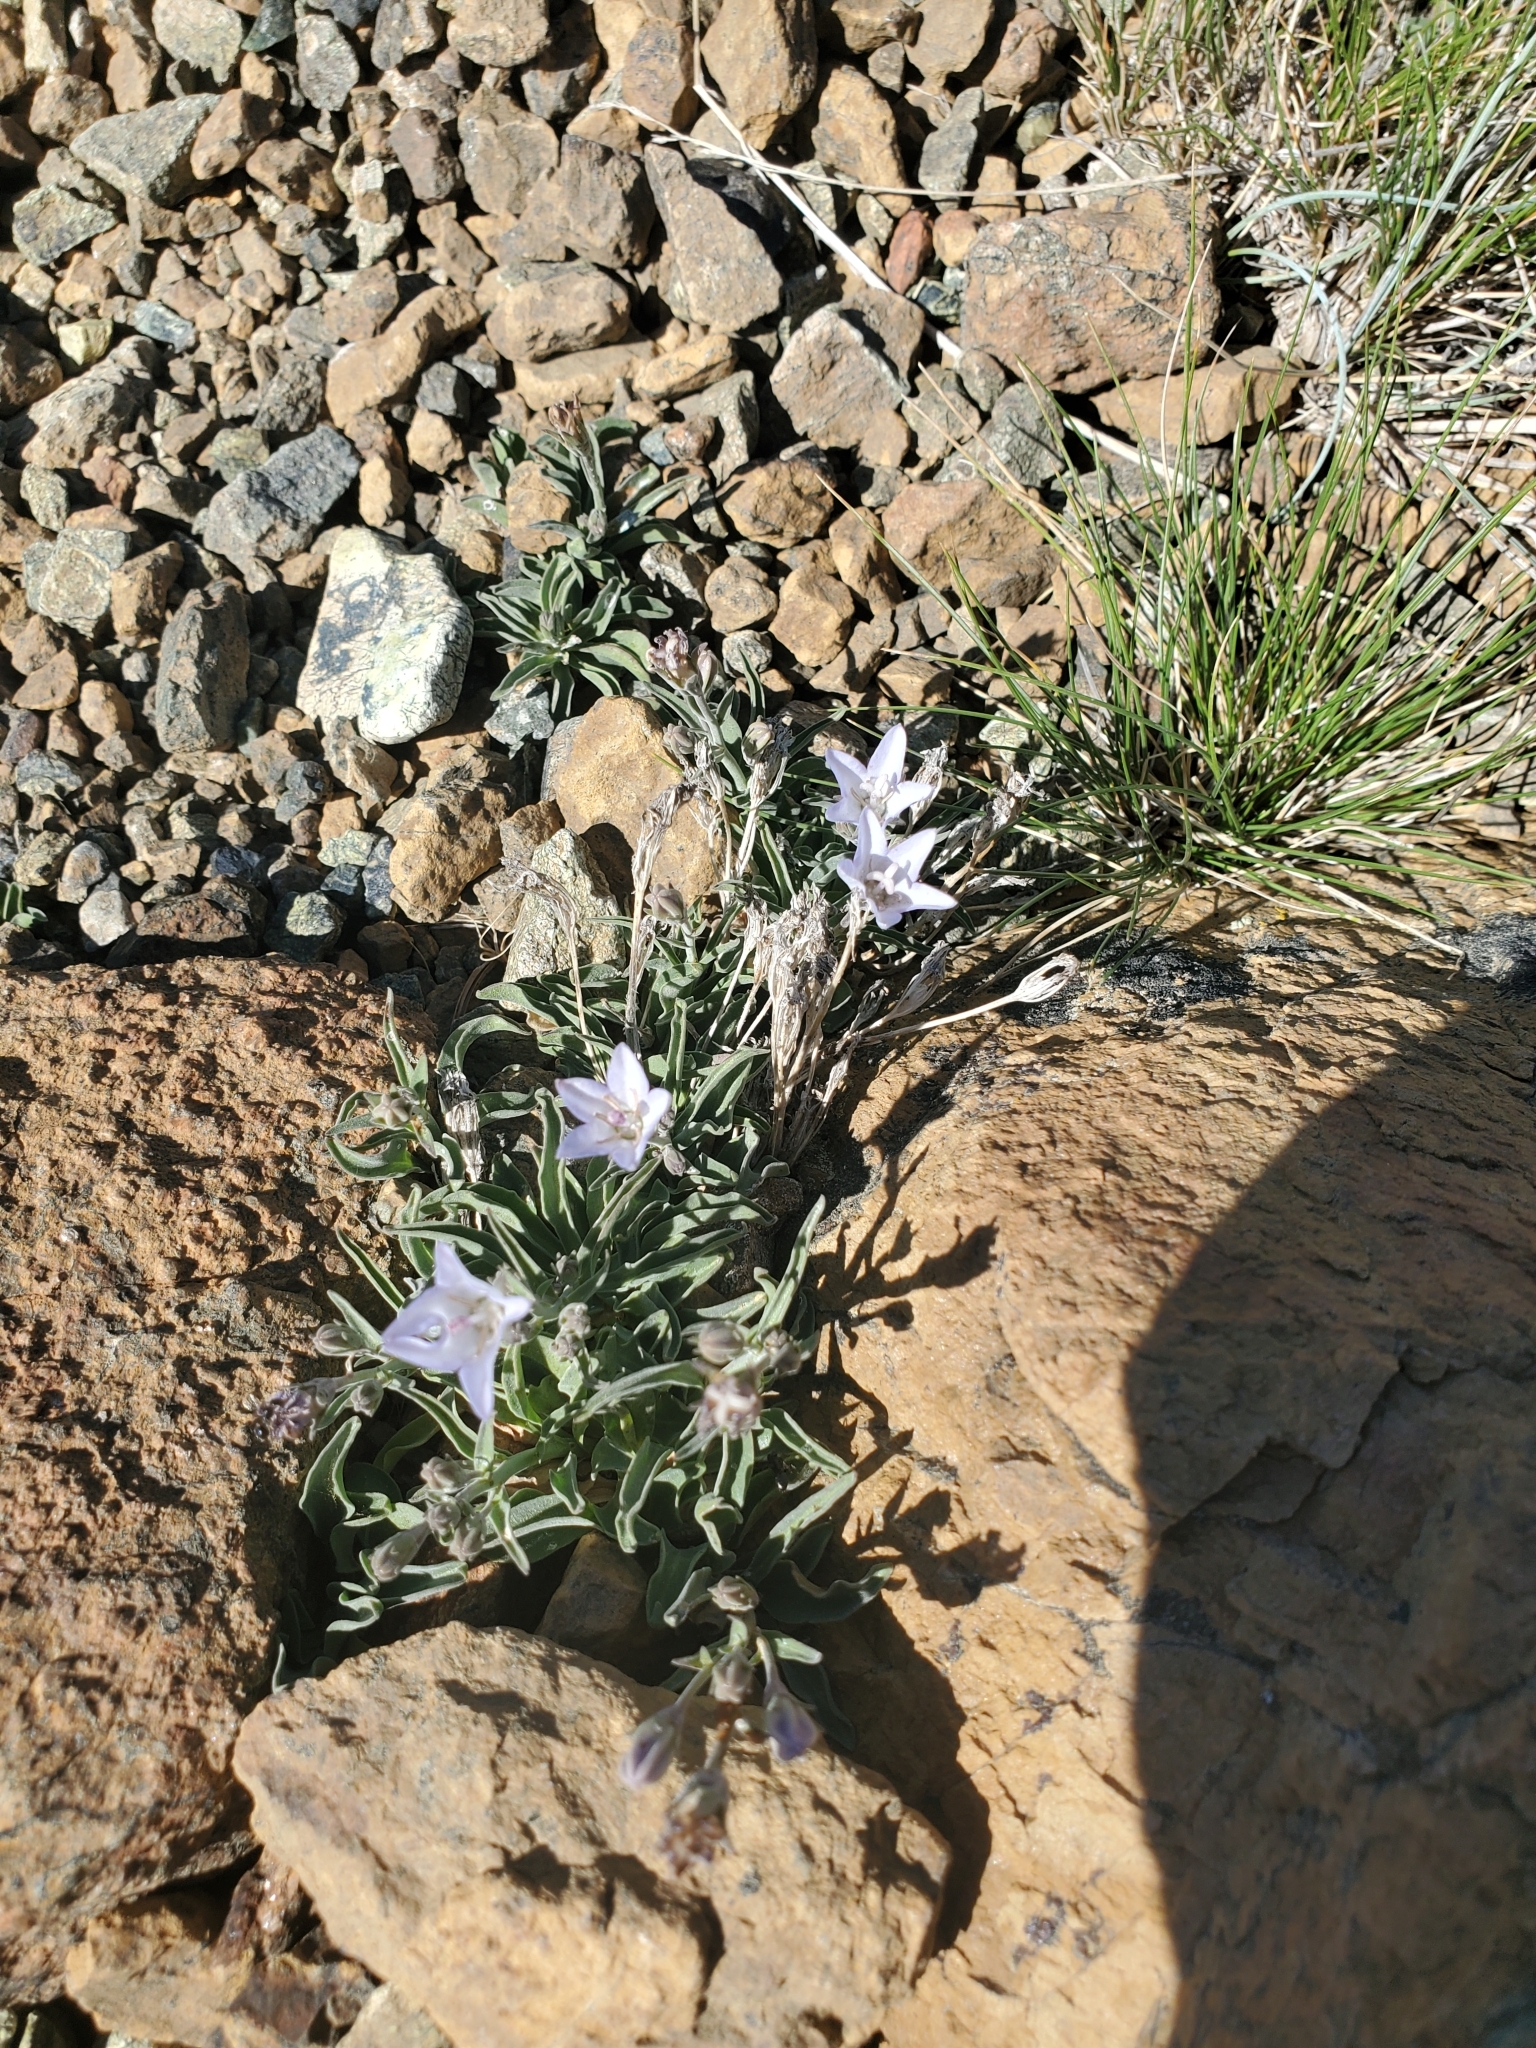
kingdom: Plantae
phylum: Tracheophyta
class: Magnoliopsida
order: Asterales
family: Campanulaceae
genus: Campanula
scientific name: Campanula scabrella
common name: Downy alpine bellflower
